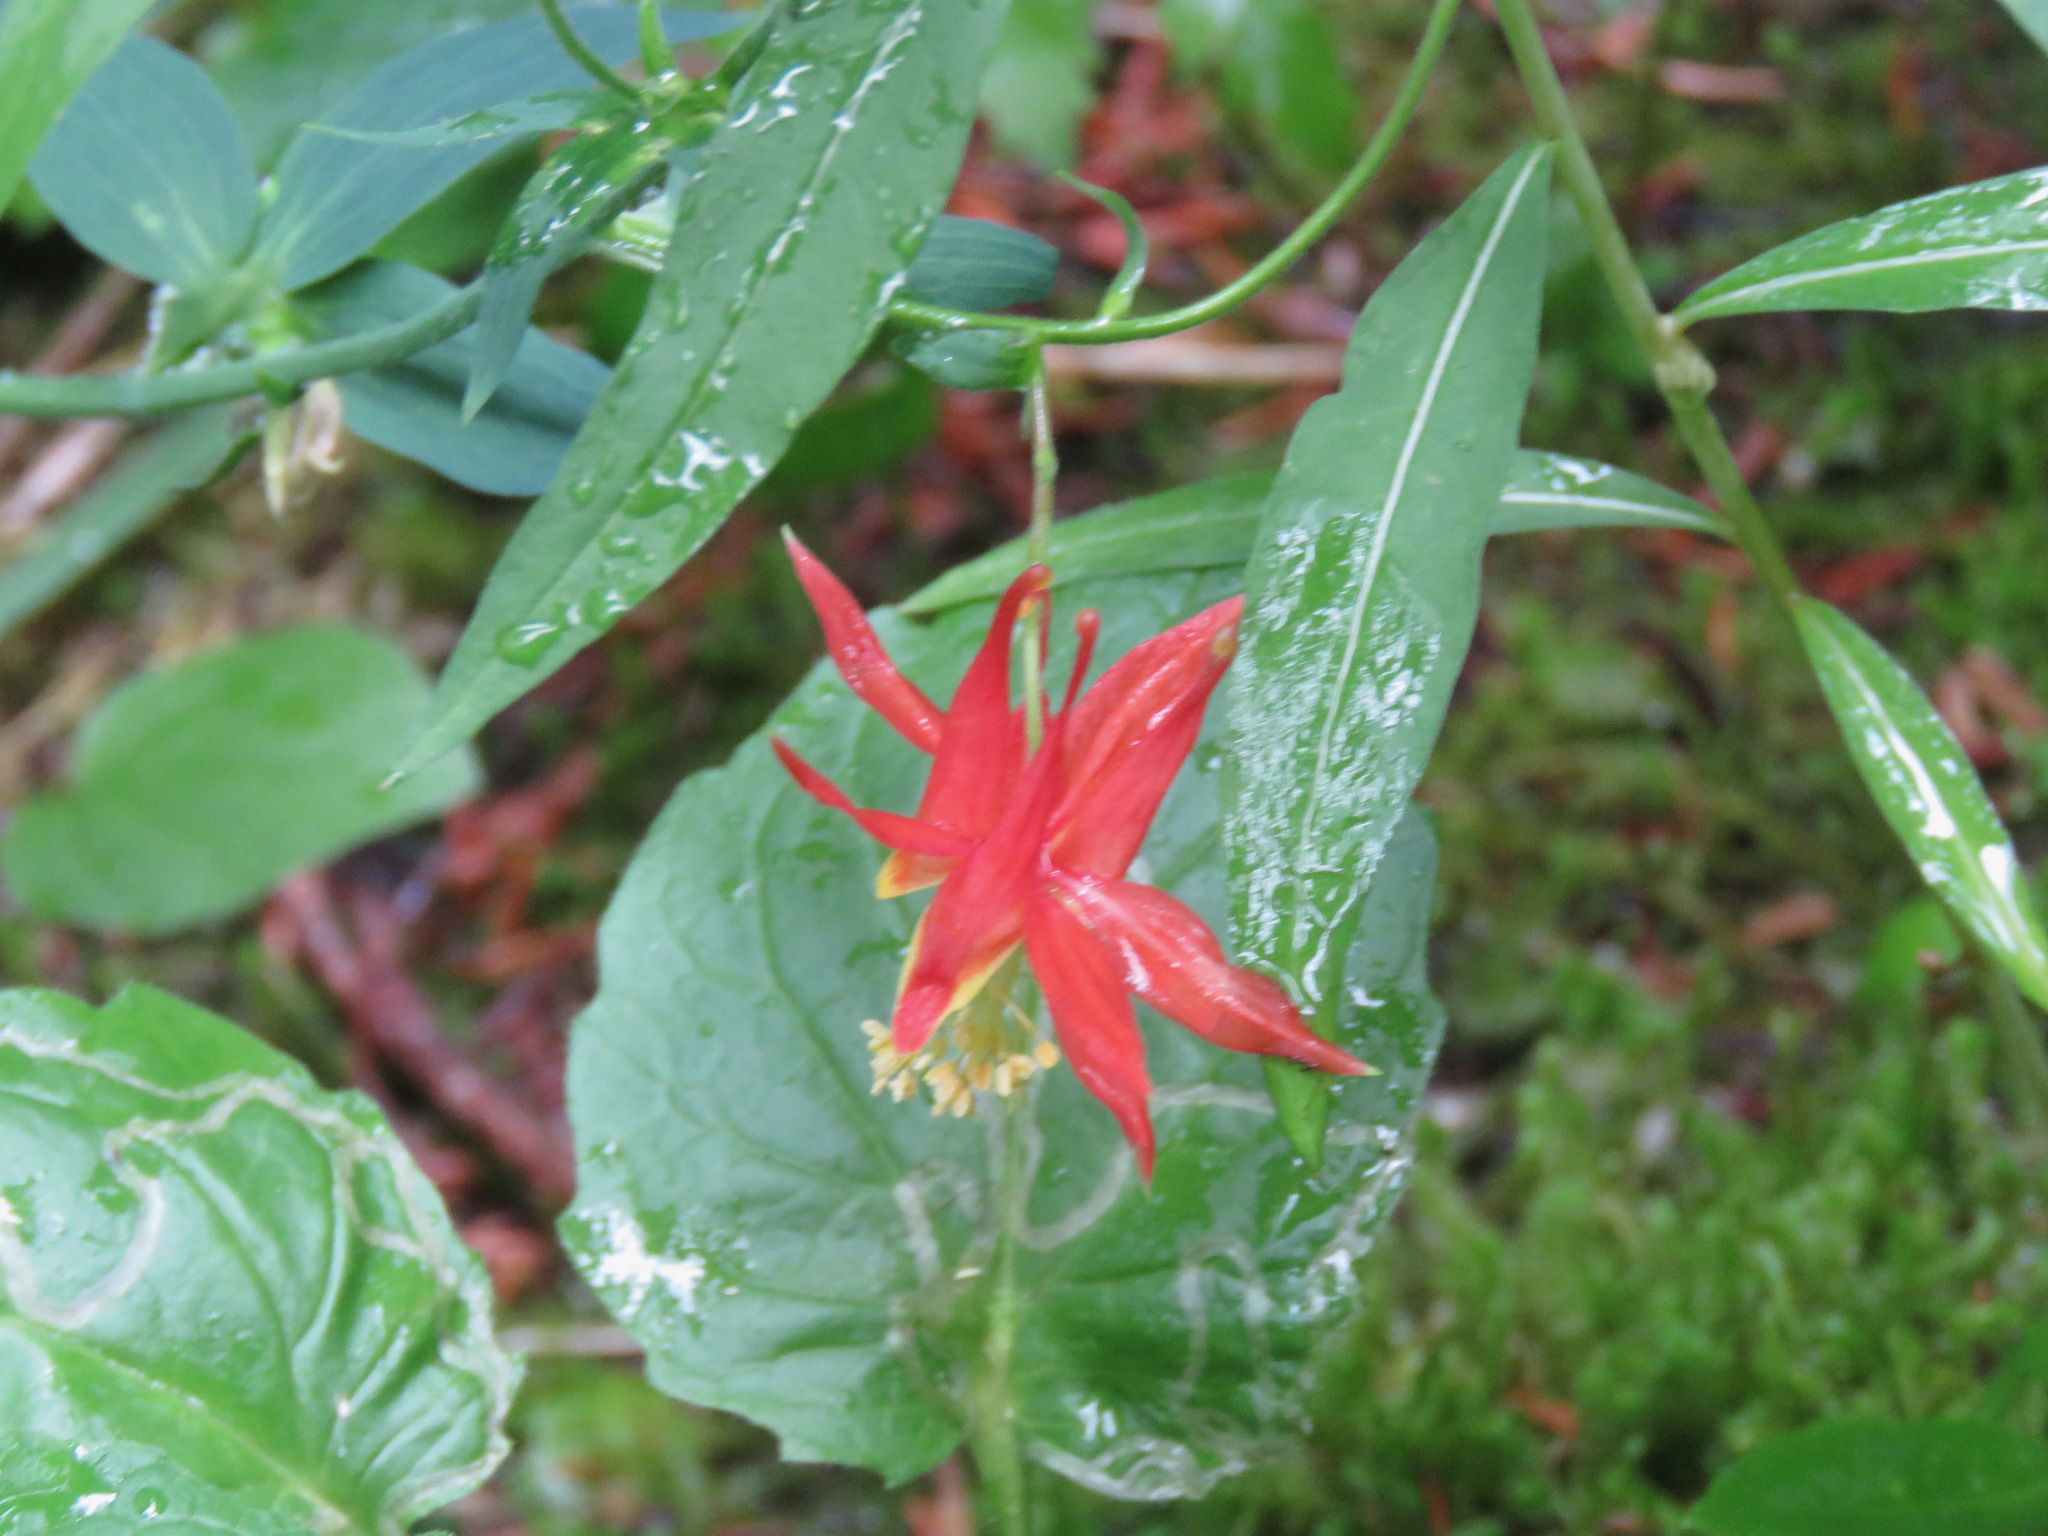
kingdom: Plantae
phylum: Tracheophyta
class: Magnoliopsida
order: Ranunculales
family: Ranunculaceae
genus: Aquilegia
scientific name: Aquilegia formosa
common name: Sitka columbine
